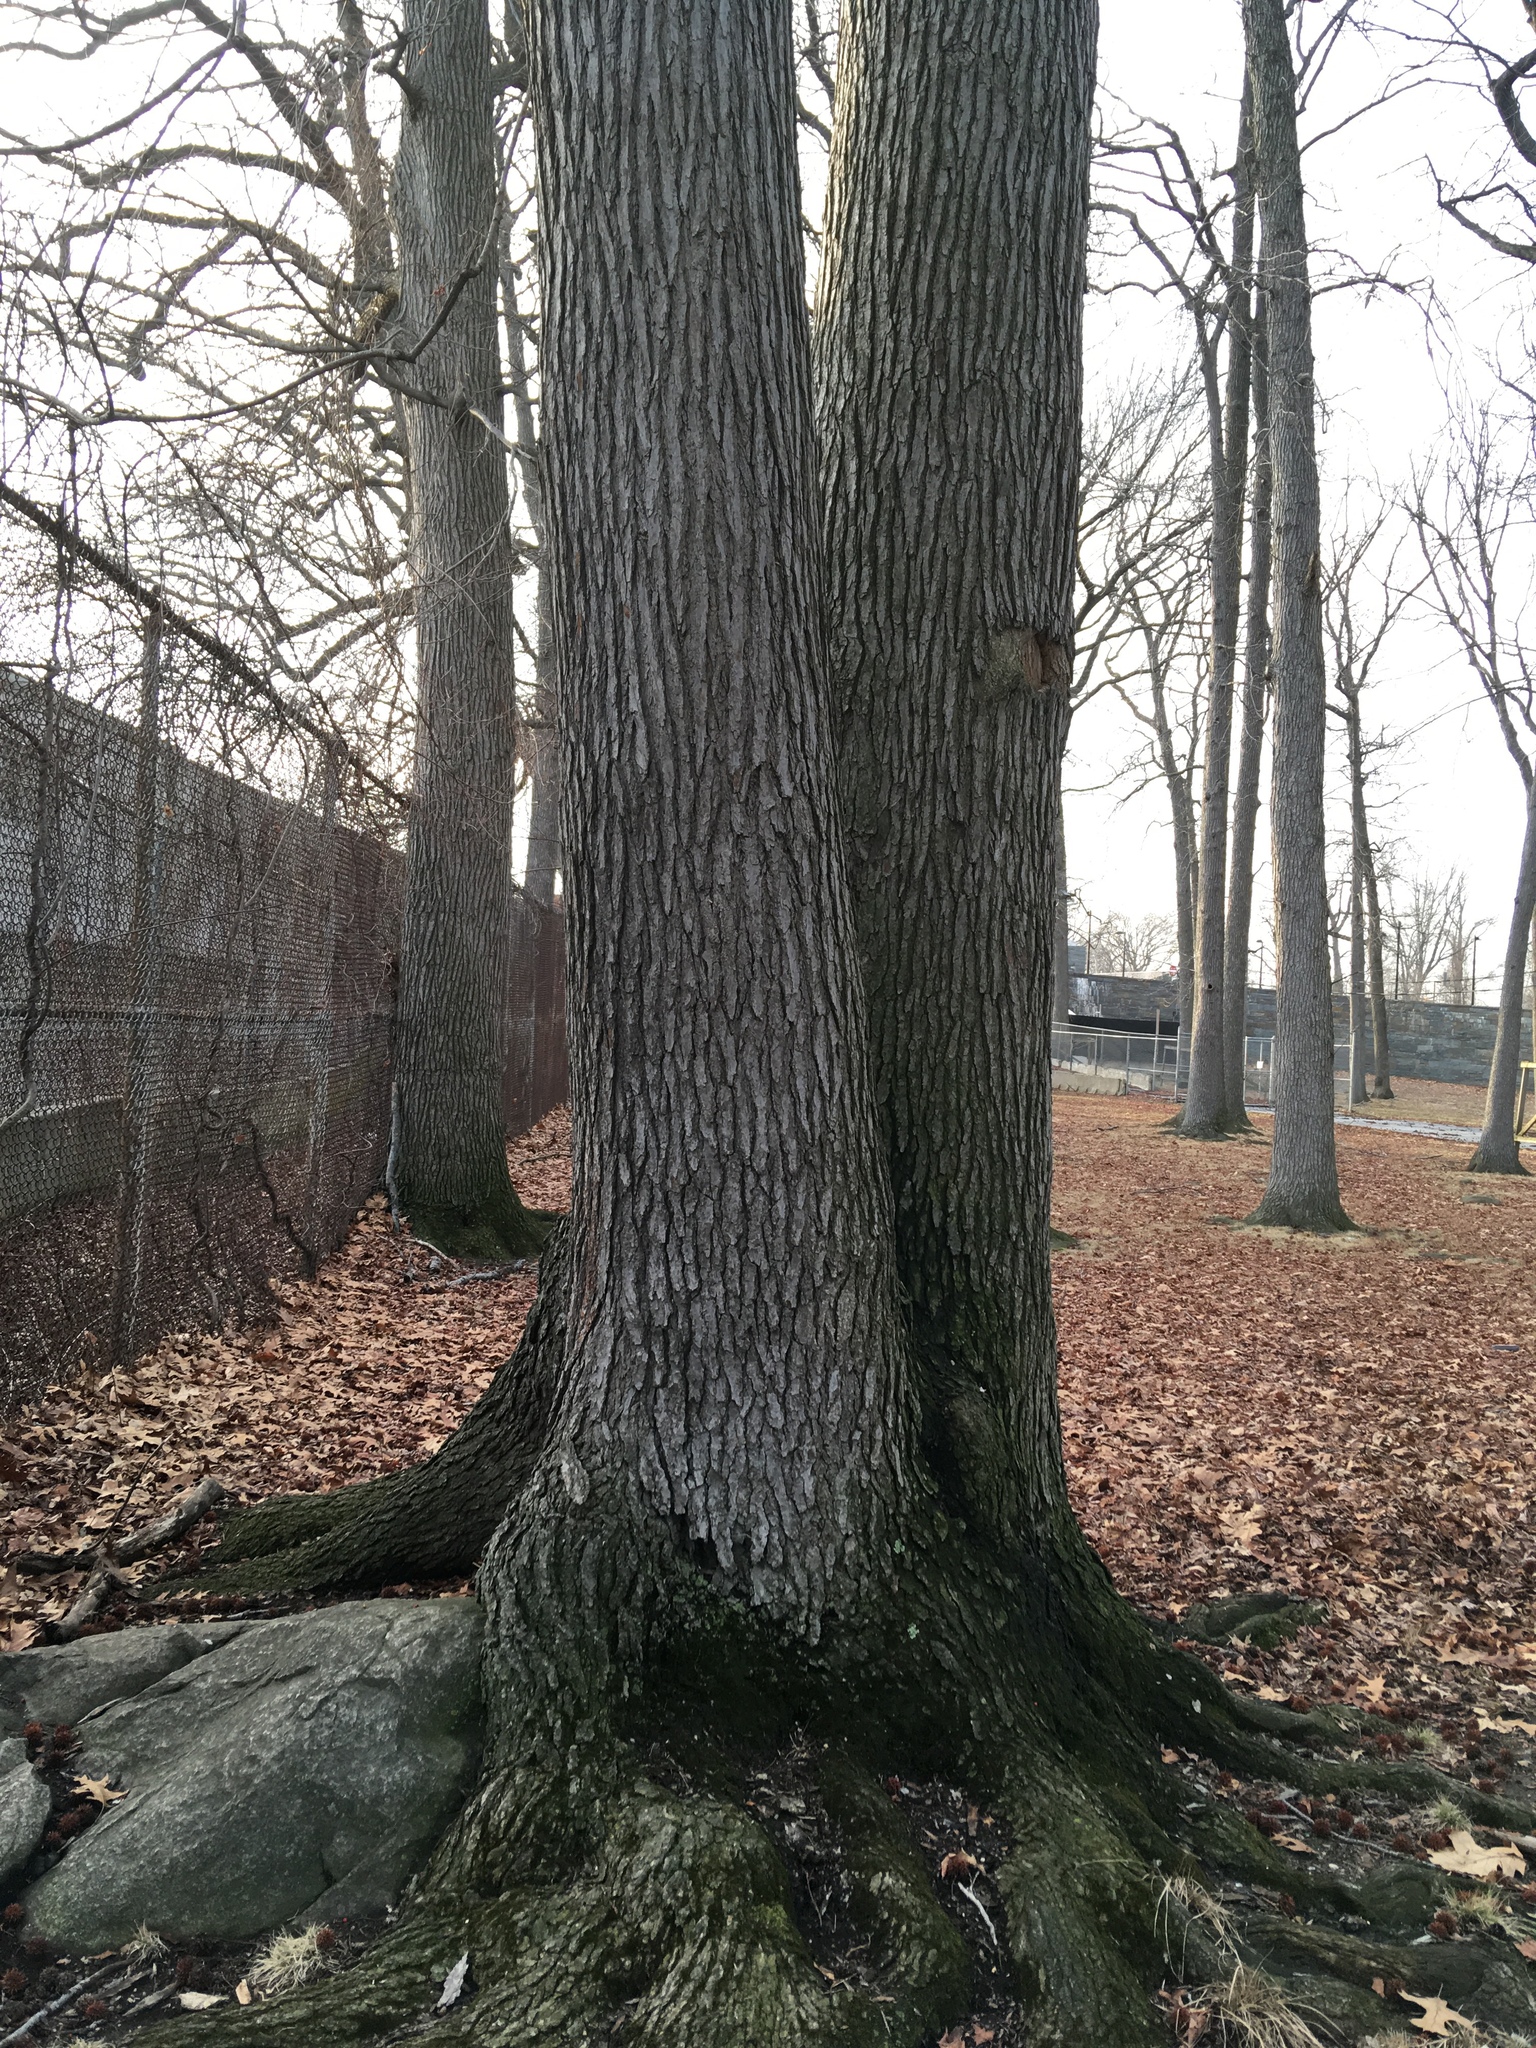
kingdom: Plantae
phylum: Tracheophyta
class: Magnoliopsida
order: Saxifragales
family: Altingiaceae
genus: Liquidambar
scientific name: Liquidambar styraciflua
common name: Sweet gum
